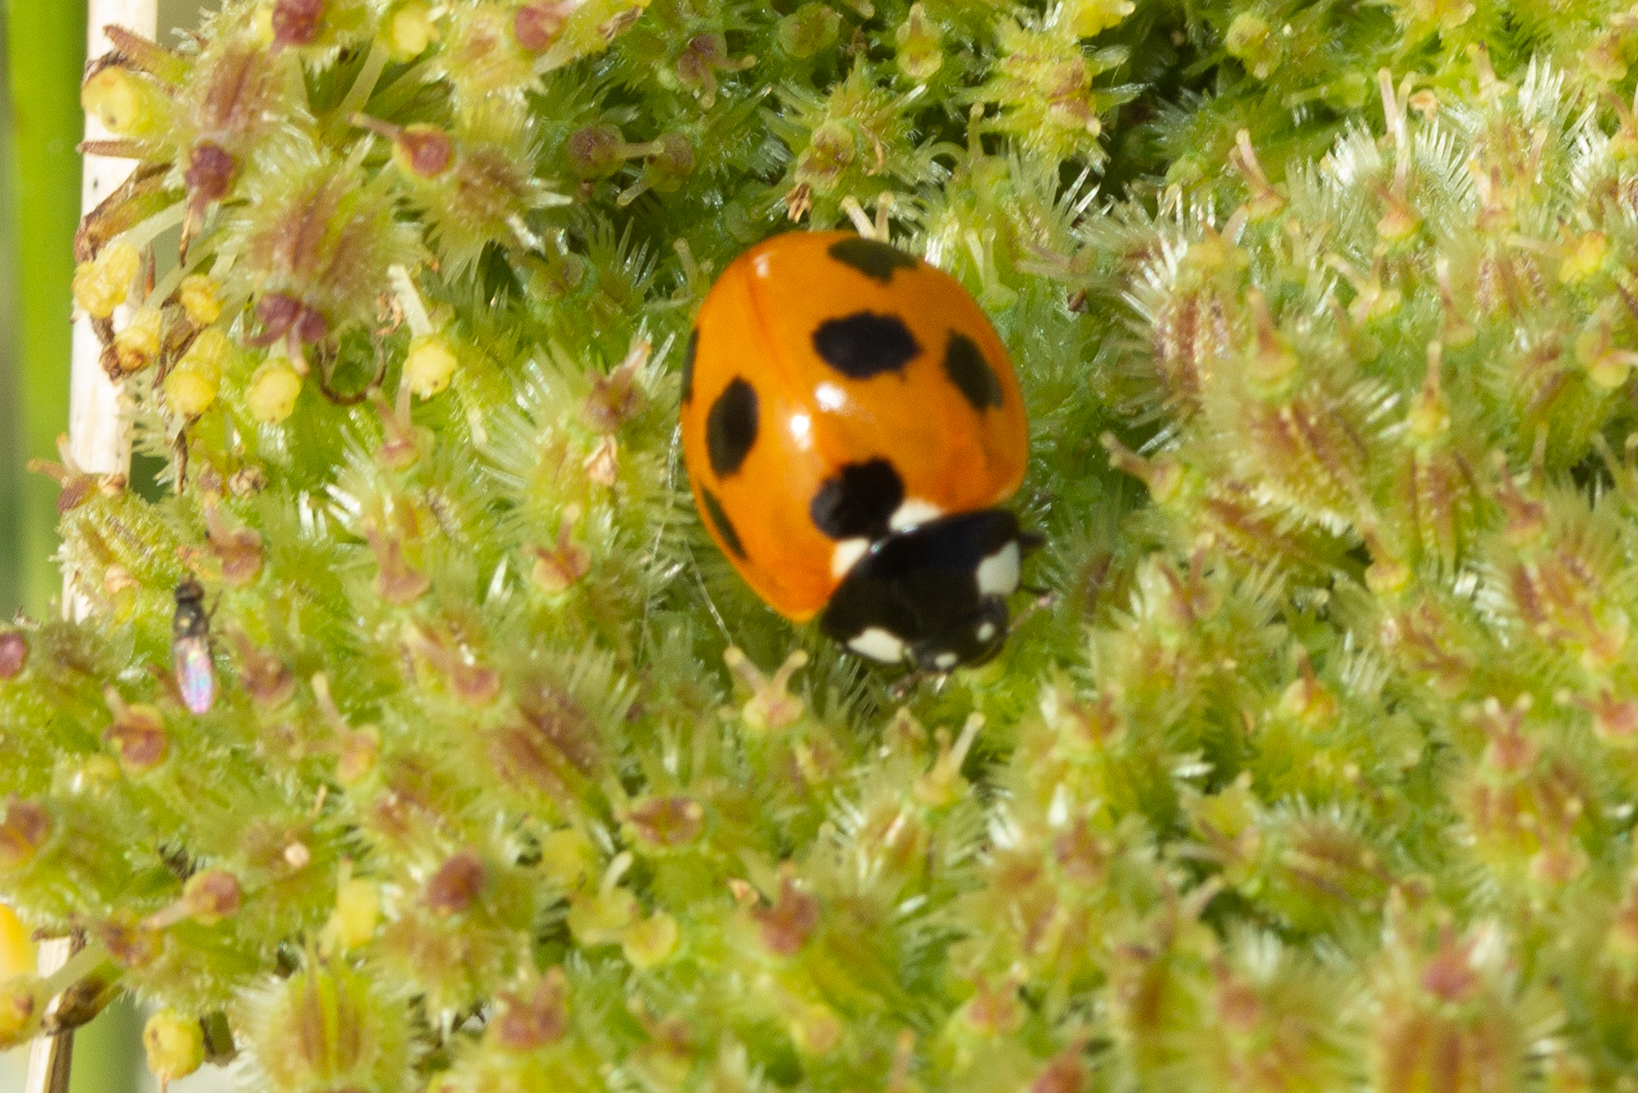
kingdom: Animalia
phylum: Arthropoda
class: Insecta
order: Coleoptera
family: Coccinellidae
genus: Coccinella
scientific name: Coccinella septempunctata
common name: Sevenspotted lady beetle
